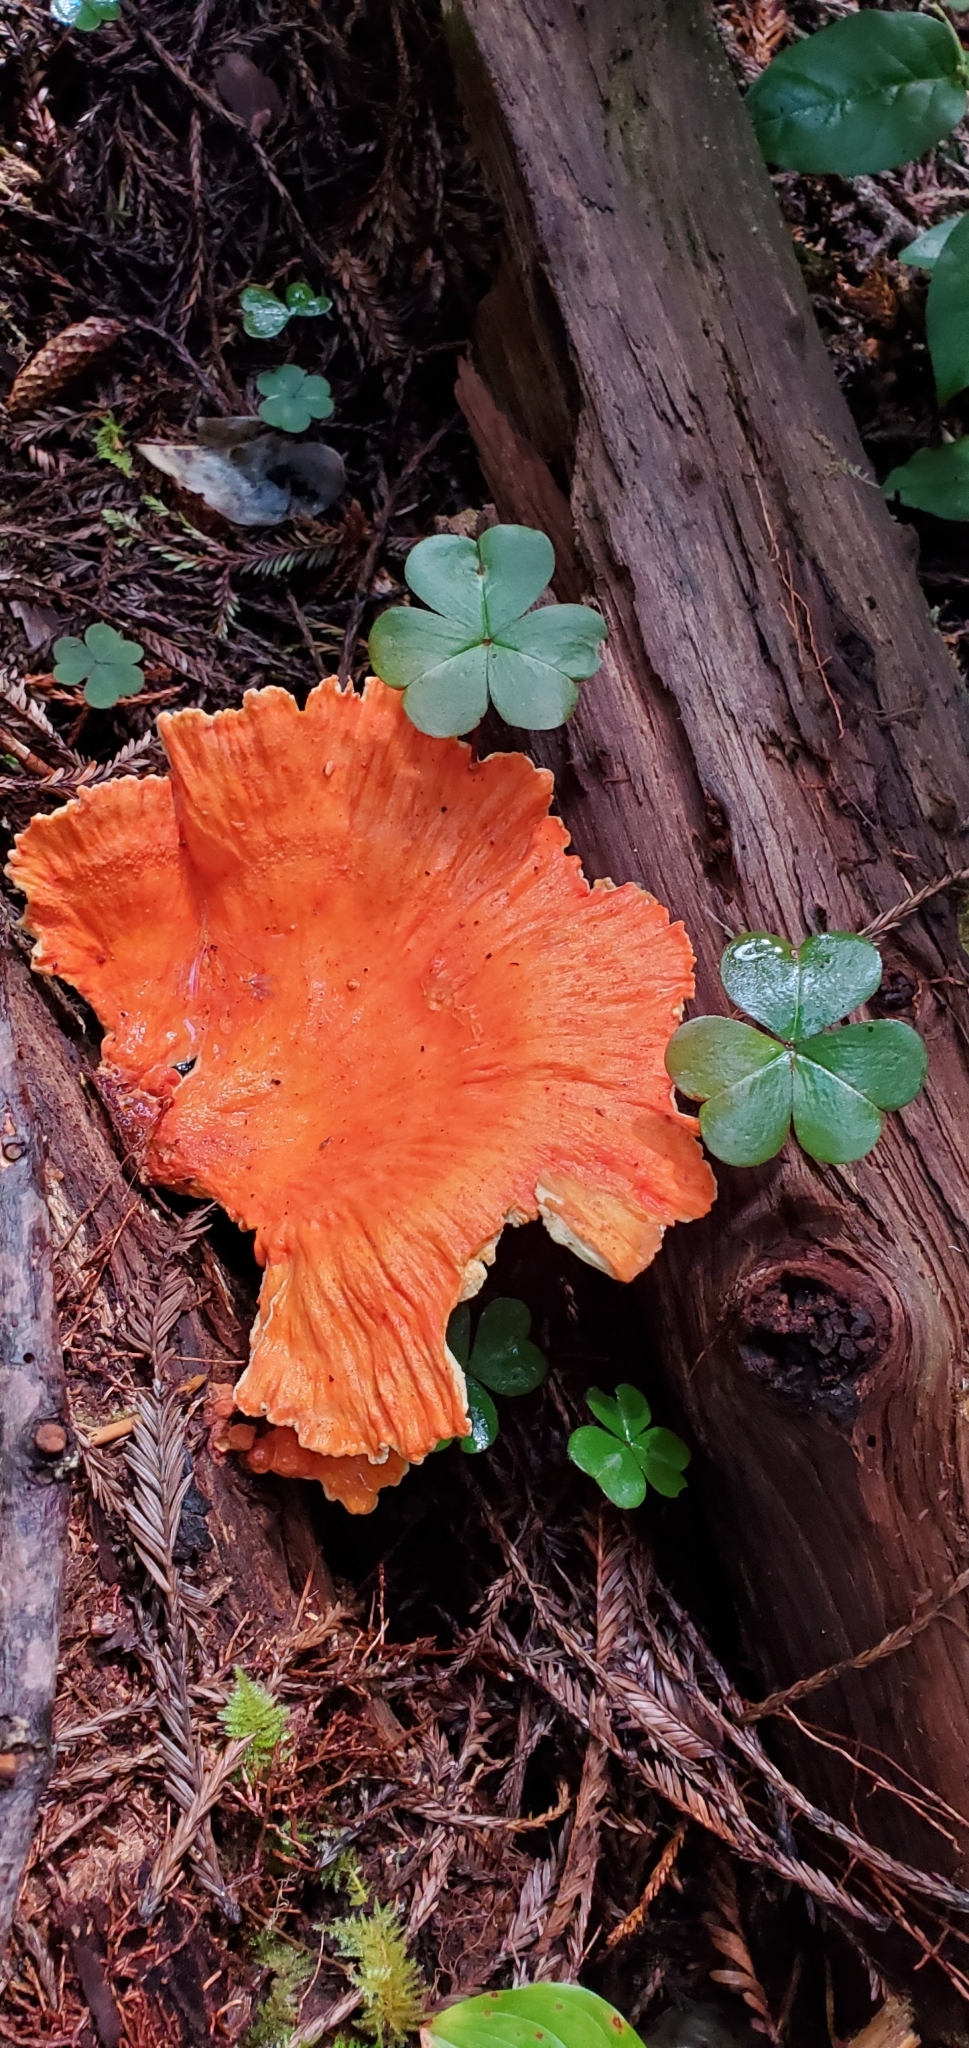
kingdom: Fungi
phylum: Basidiomycota
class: Agaricomycetes
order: Polyporales
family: Laetiporaceae
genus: Laetiporus
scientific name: Laetiporus conifericola
